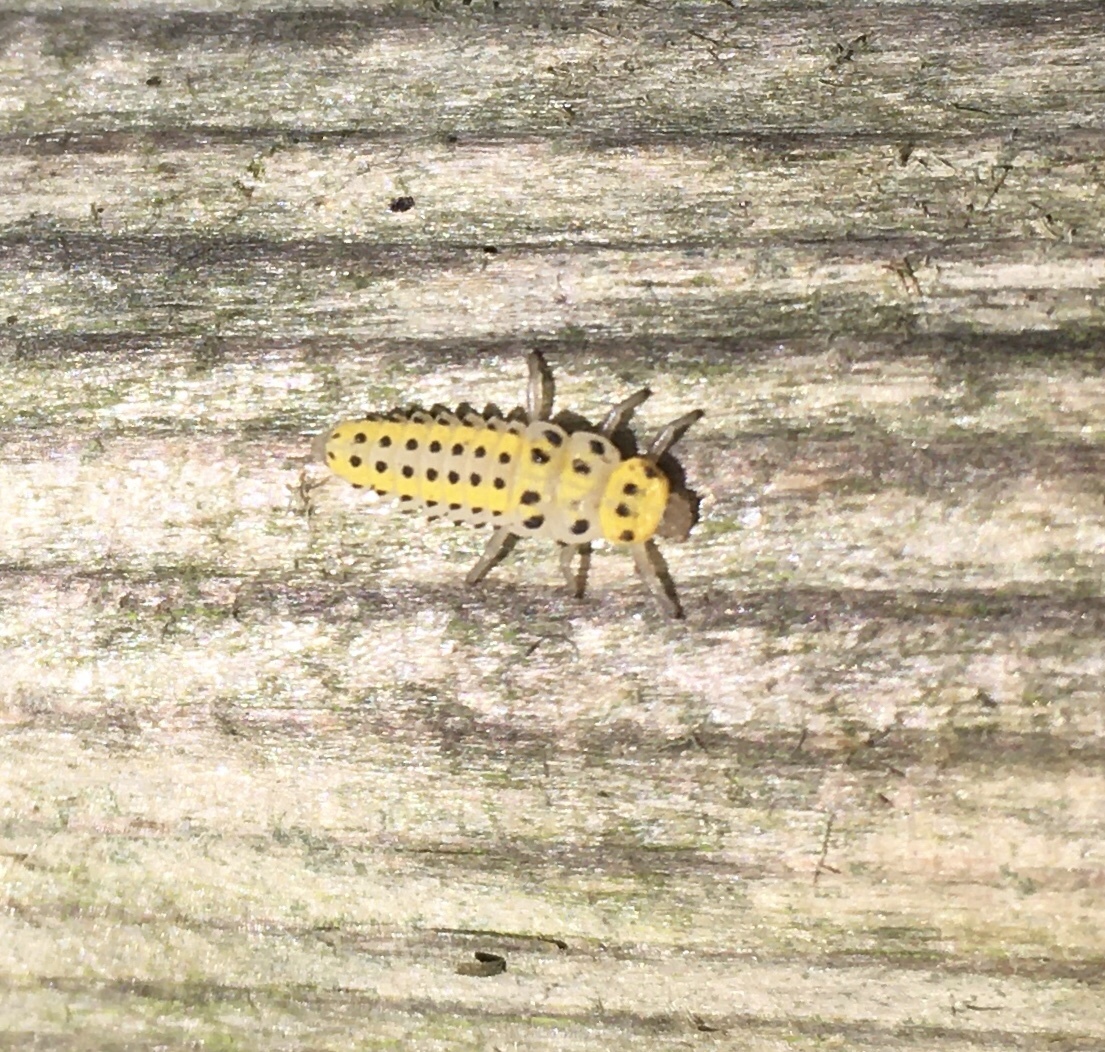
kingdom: Animalia
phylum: Arthropoda
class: Insecta
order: Coleoptera
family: Coccinellidae
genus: Halyzia
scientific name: Halyzia sedecimguttata
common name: Orange ladybird
